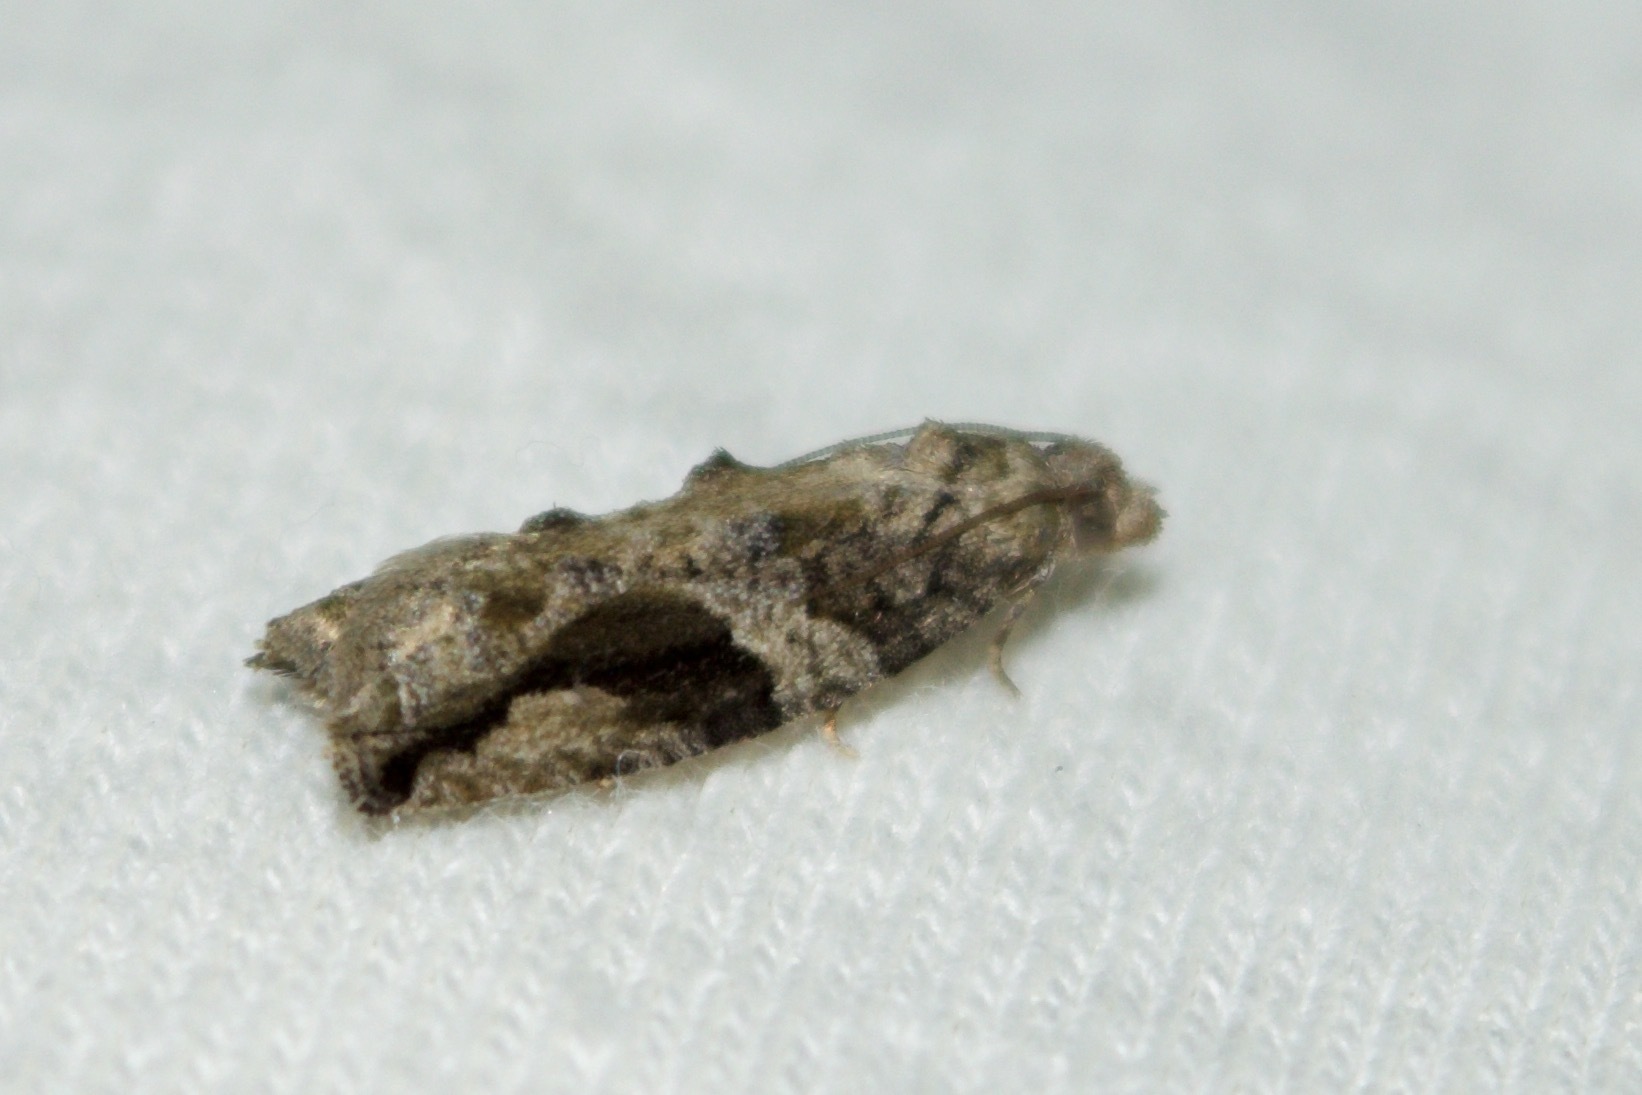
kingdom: Animalia
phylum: Arthropoda
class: Insecta
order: Lepidoptera
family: Tortricidae
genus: Proteoteras
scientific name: Proteoteras crescentana
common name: Black-crescent proteoteras moth
